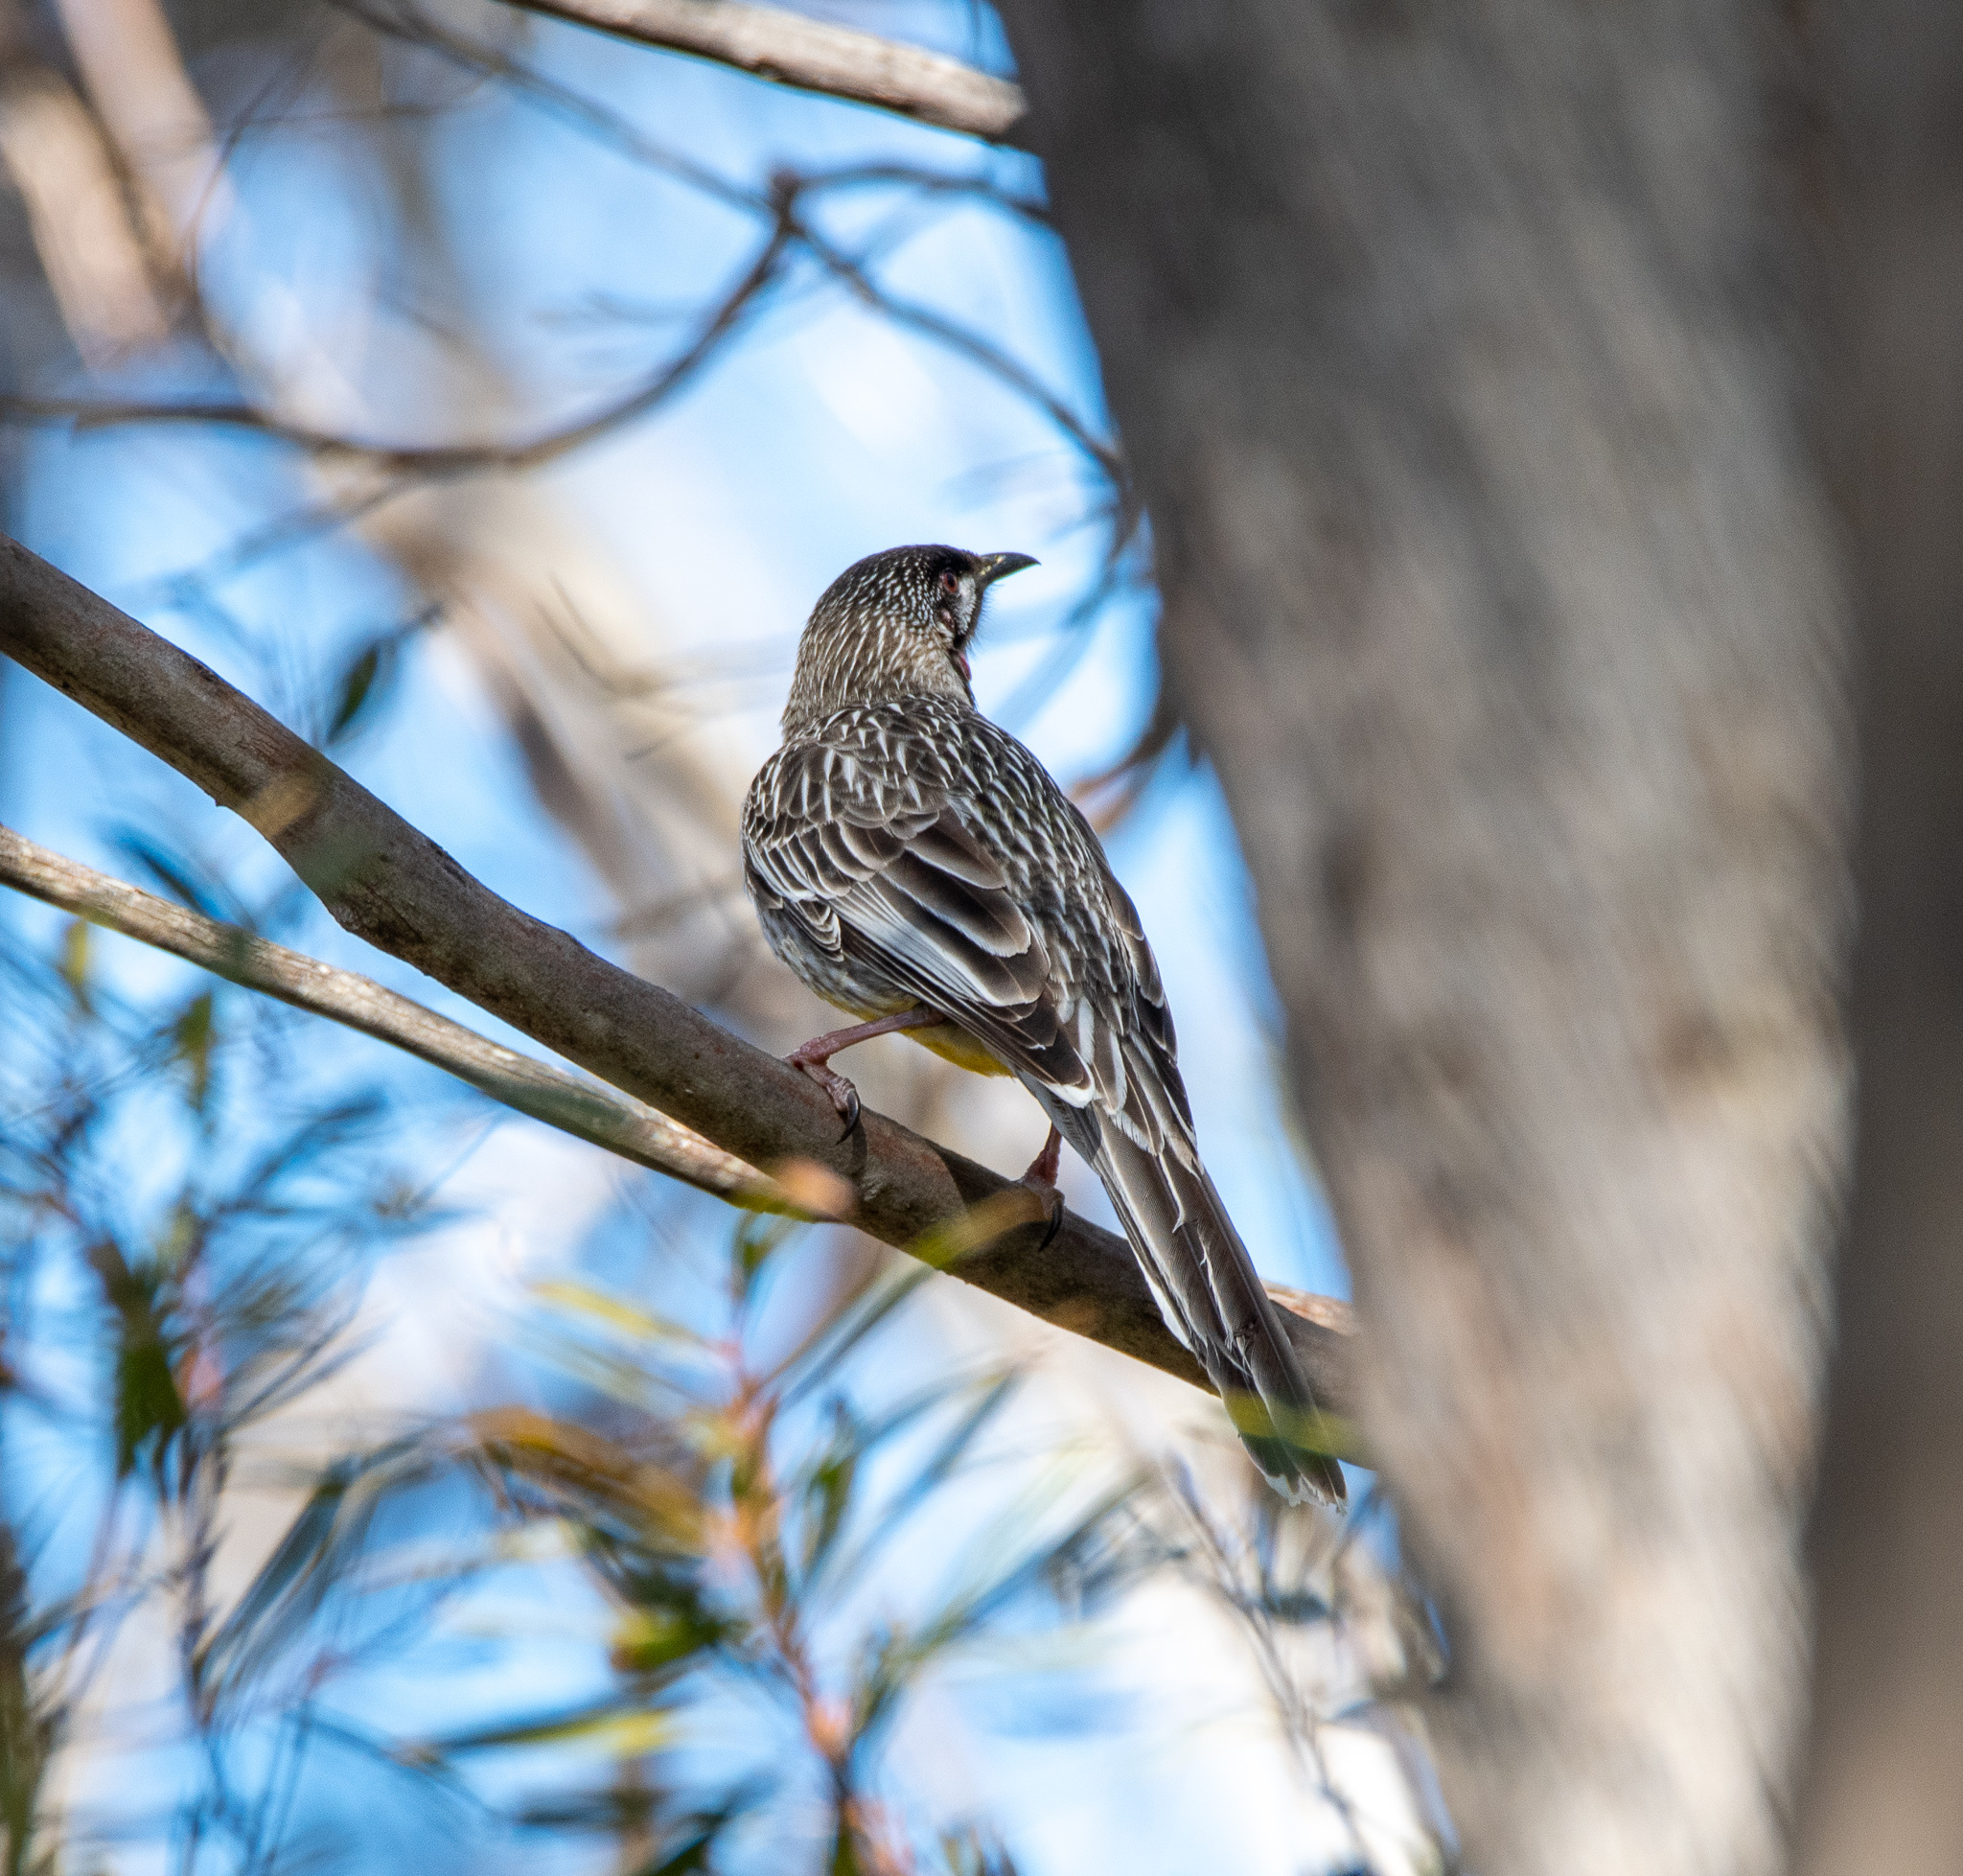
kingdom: Animalia
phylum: Chordata
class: Aves
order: Passeriformes
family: Meliphagidae
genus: Anthochaera
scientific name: Anthochaera carunculata
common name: Red wattlebird
